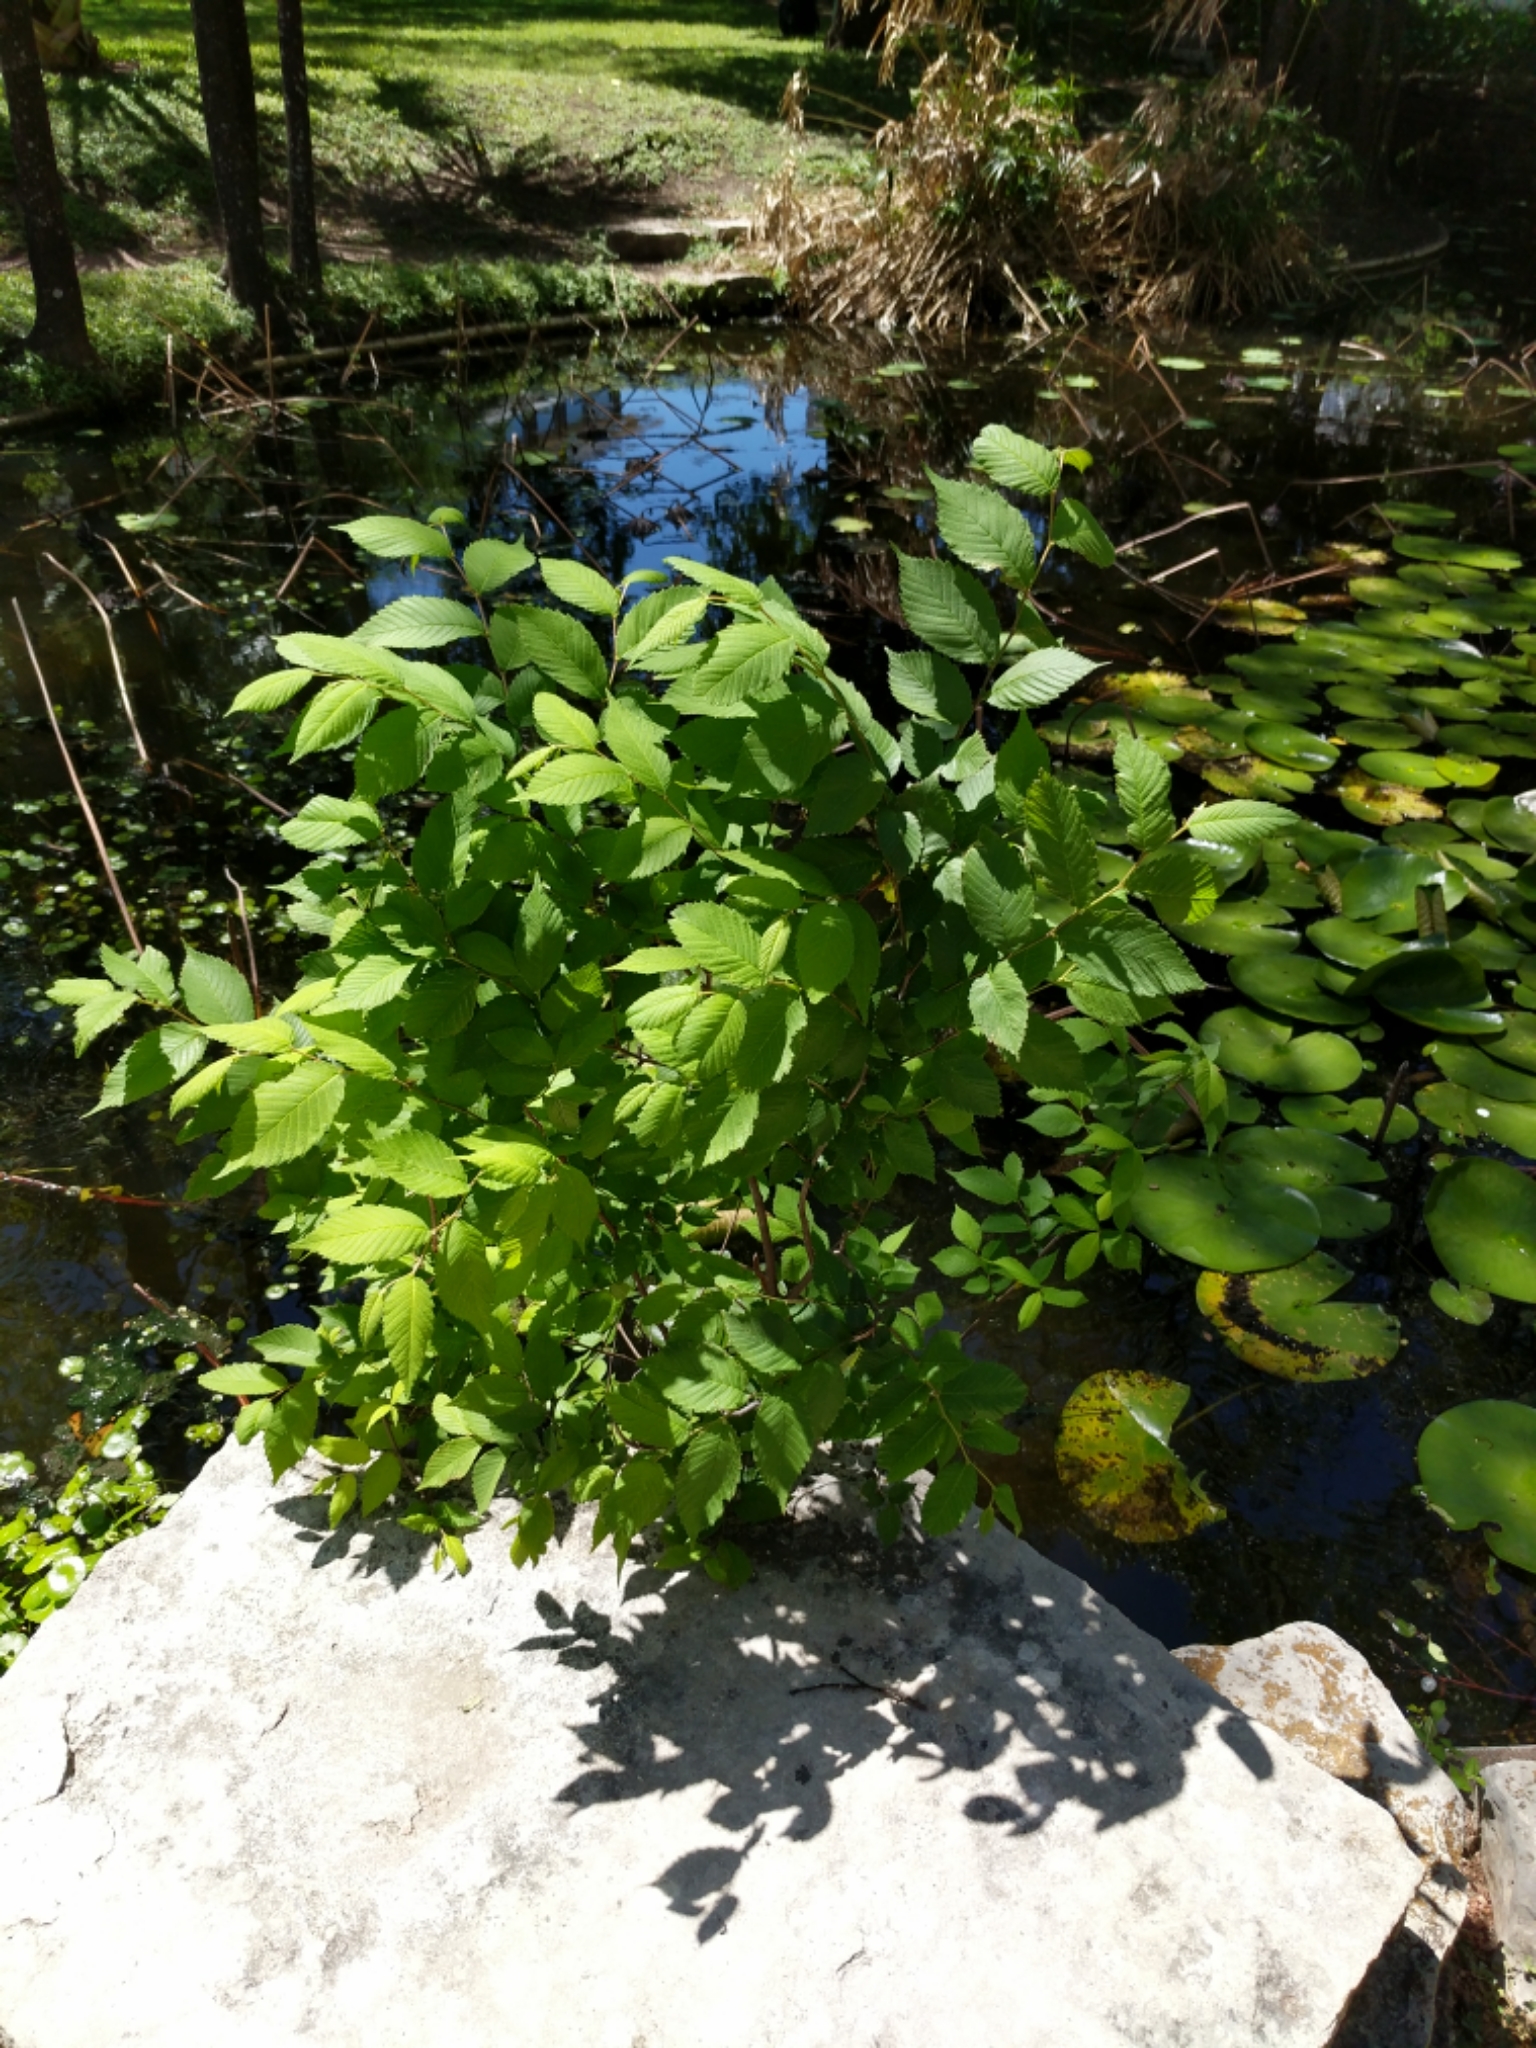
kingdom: Plantae
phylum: Tracheophyta
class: Magnoliopsida
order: Rosales
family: Ulmaceae
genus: Ulmus
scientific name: Ulmus americana
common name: American elm
